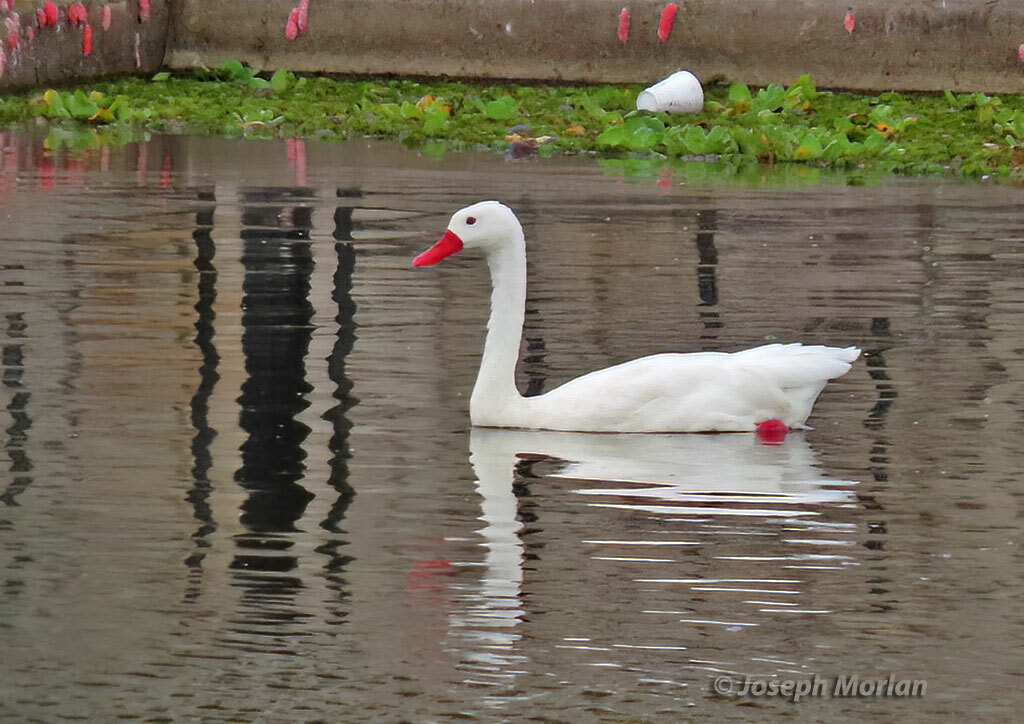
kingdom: Animalia
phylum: Chordata
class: Aves
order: Anseriformes
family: Anatidae
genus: Coscoroba
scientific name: Coscoroba coscoroba
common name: Coscoroba swan
